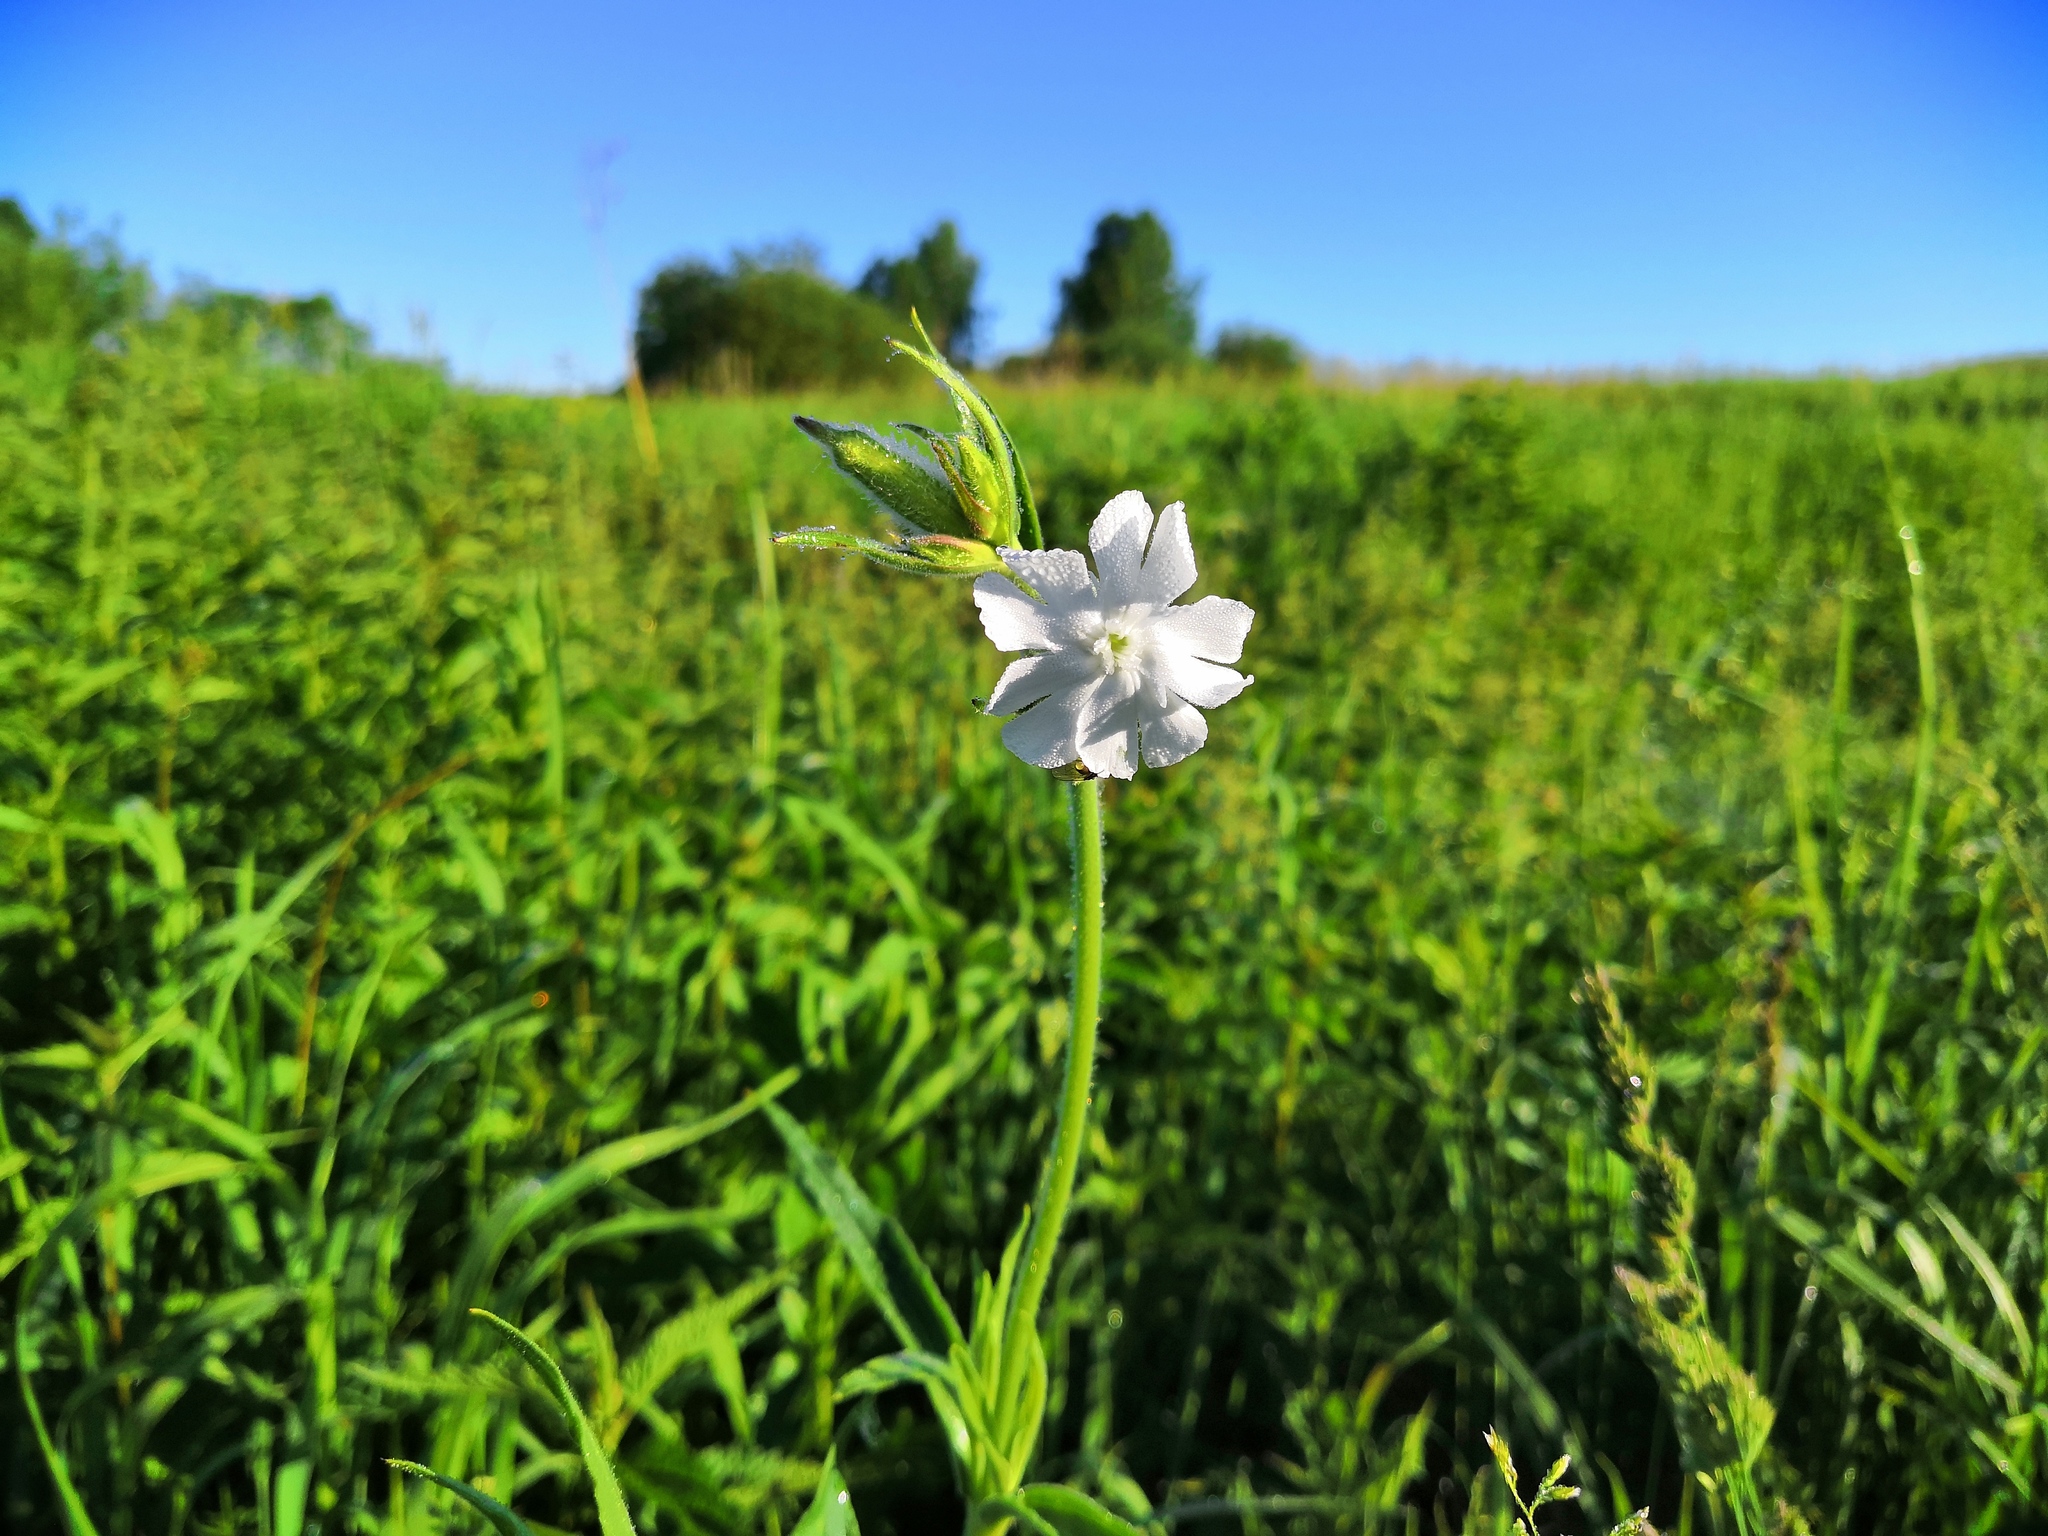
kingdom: Plantae
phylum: Tracheophyta
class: Magnoliopsida
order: Caryophyllales
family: Caryophyllaceae
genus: Silene
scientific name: Silene latifolia
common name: White campion
